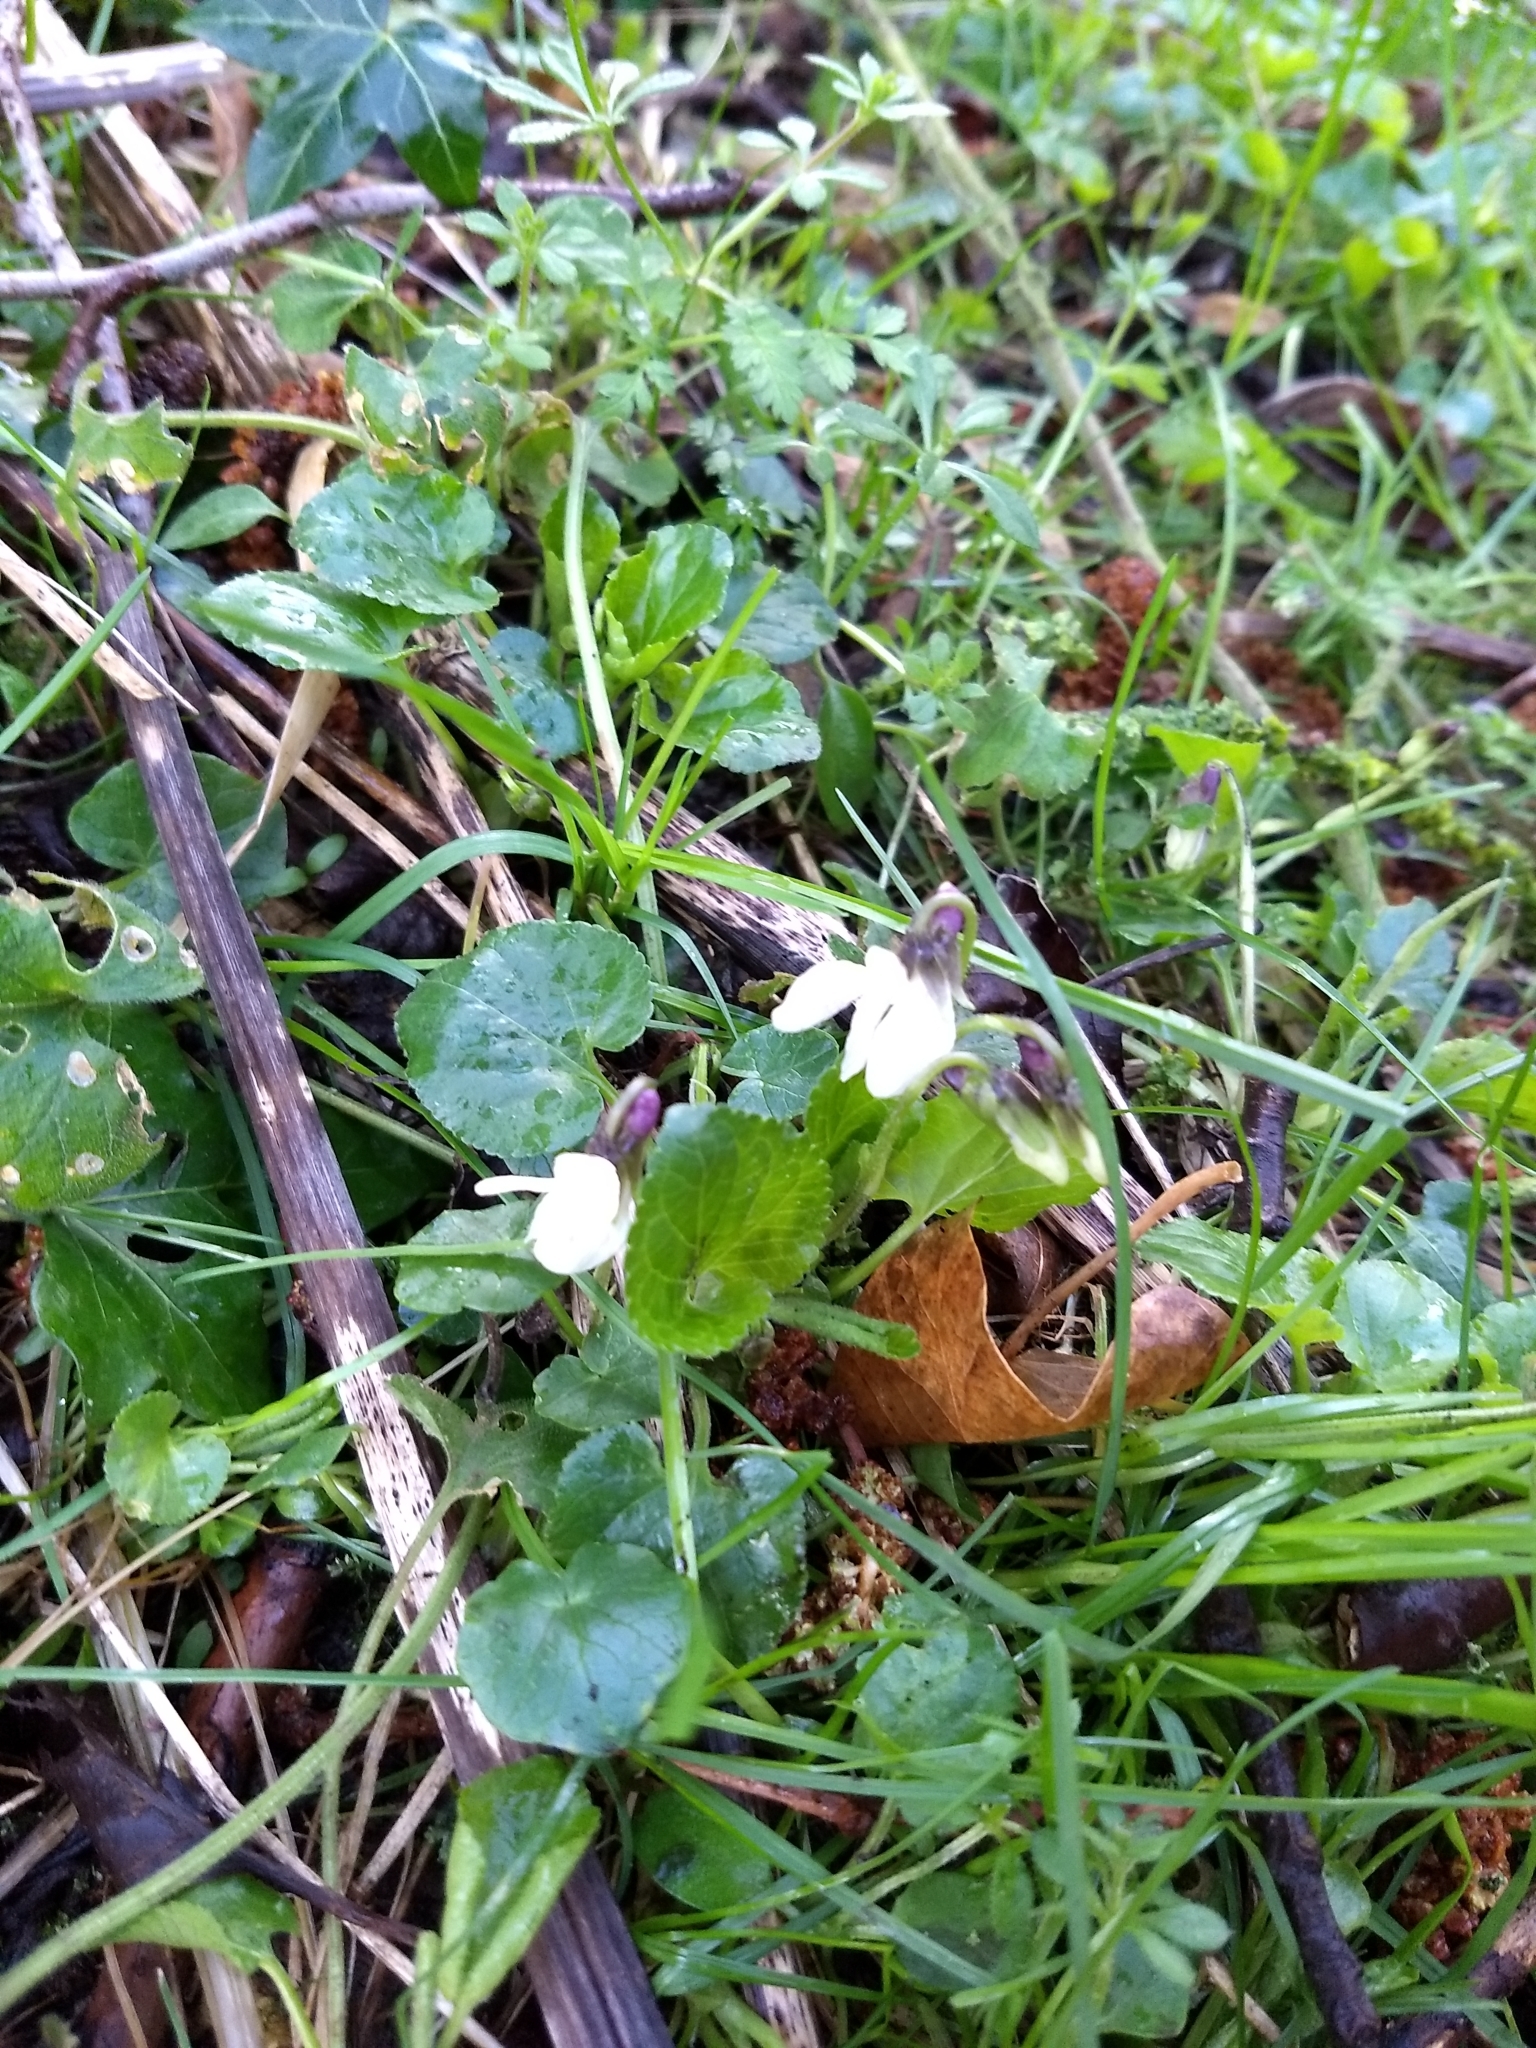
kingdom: Plantae
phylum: Tracheophyta
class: Magnoliopsida
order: Malpighiales
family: Violaceae
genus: Viola
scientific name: Viola odorata
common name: Sweet violet
